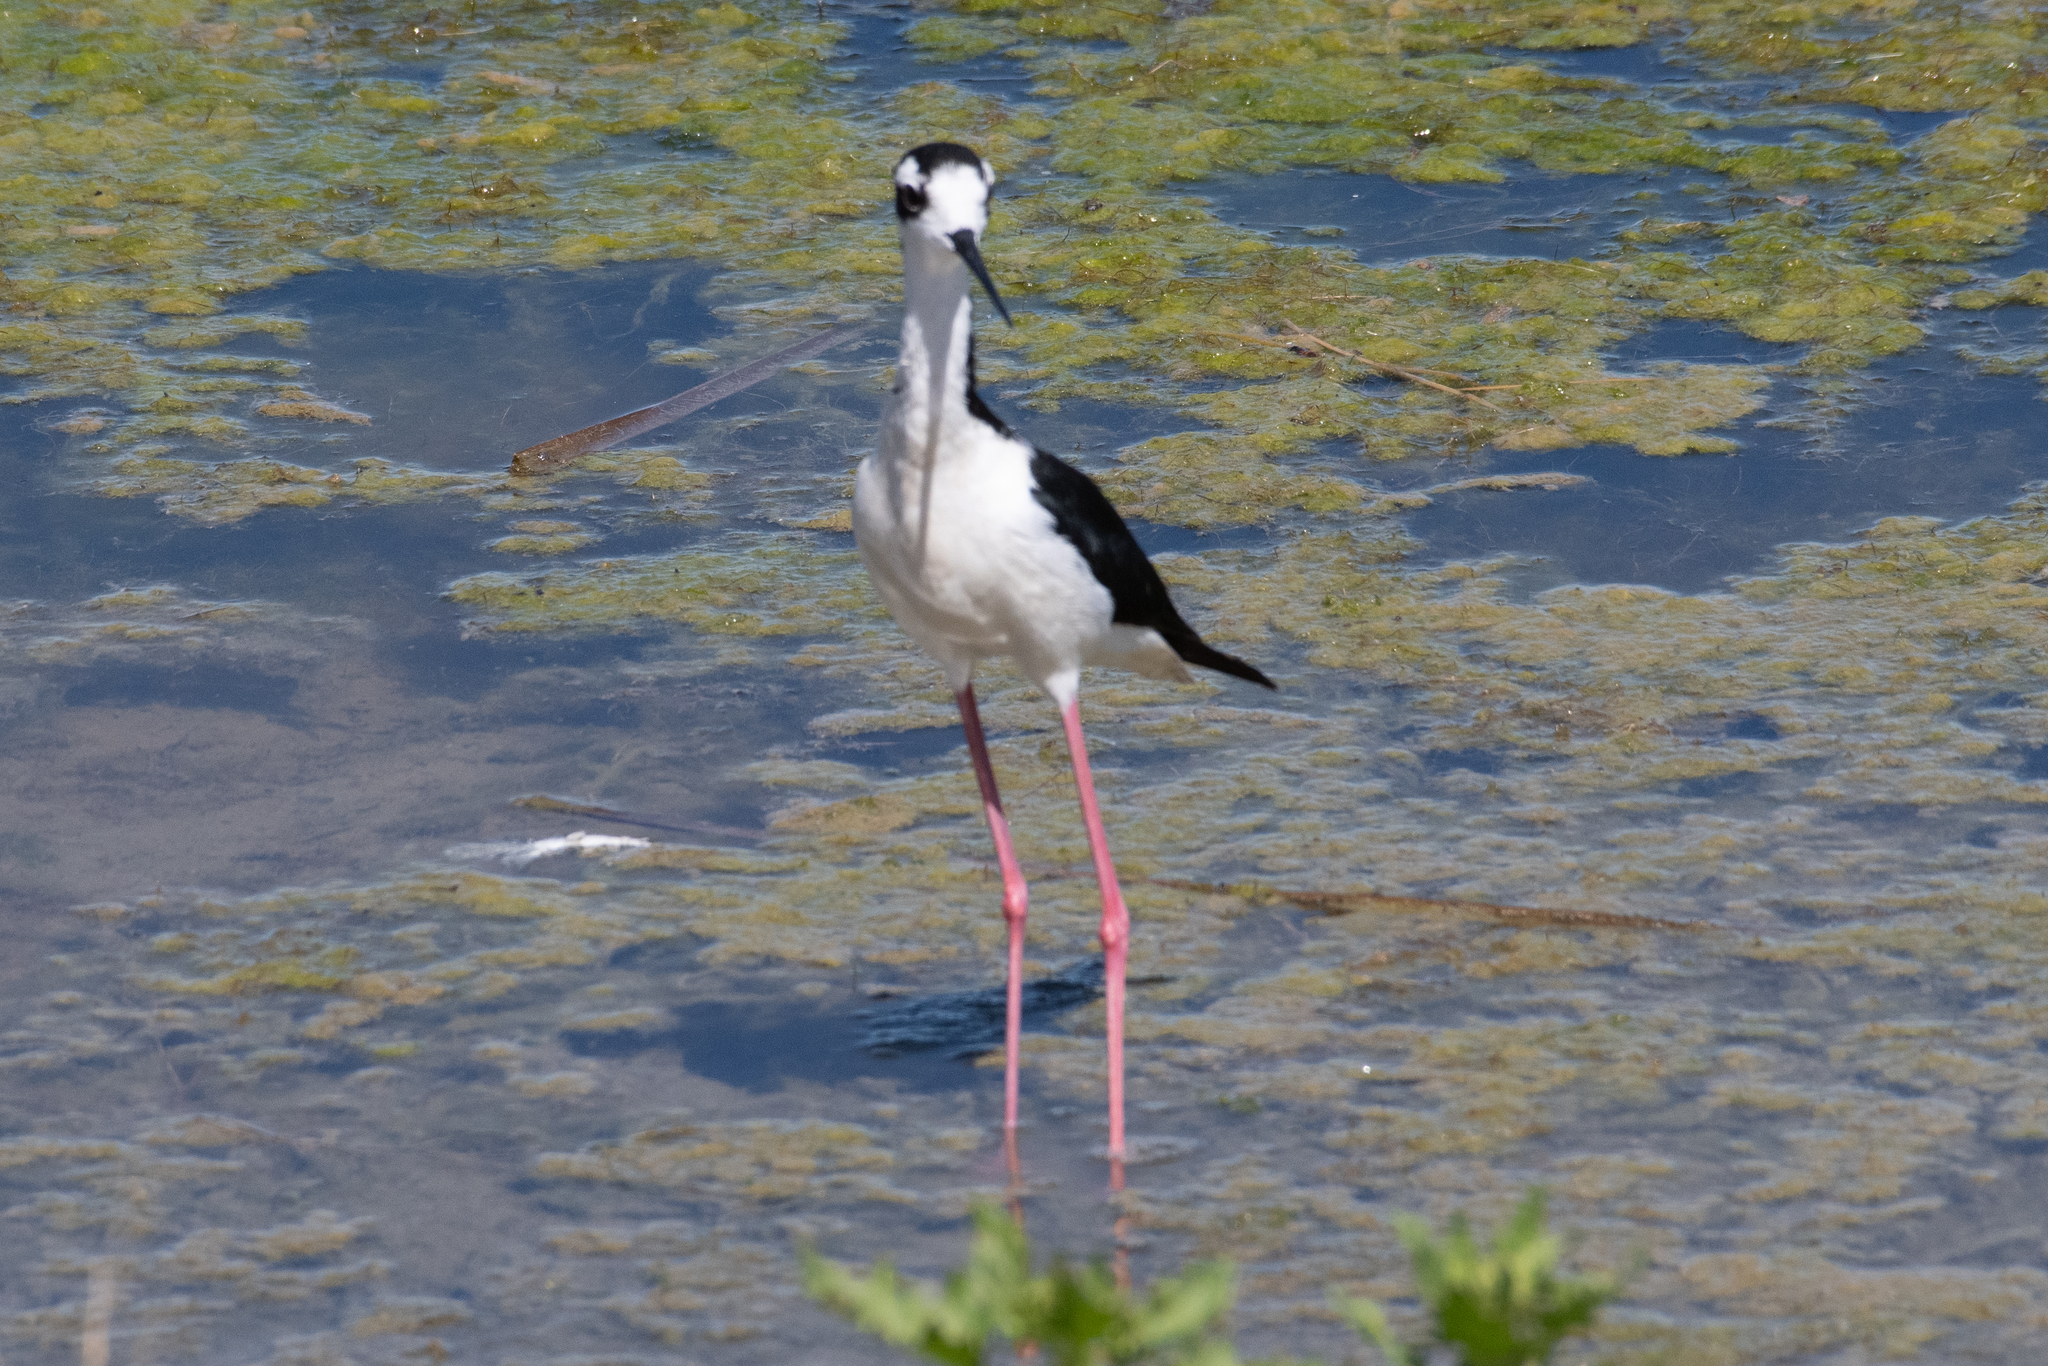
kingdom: Animalia
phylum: Chordata
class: Aves
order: Charadriiformes
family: Recurvirostridae
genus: Himantopus
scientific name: Himantopus mexicanus
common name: Black-necked stilt
